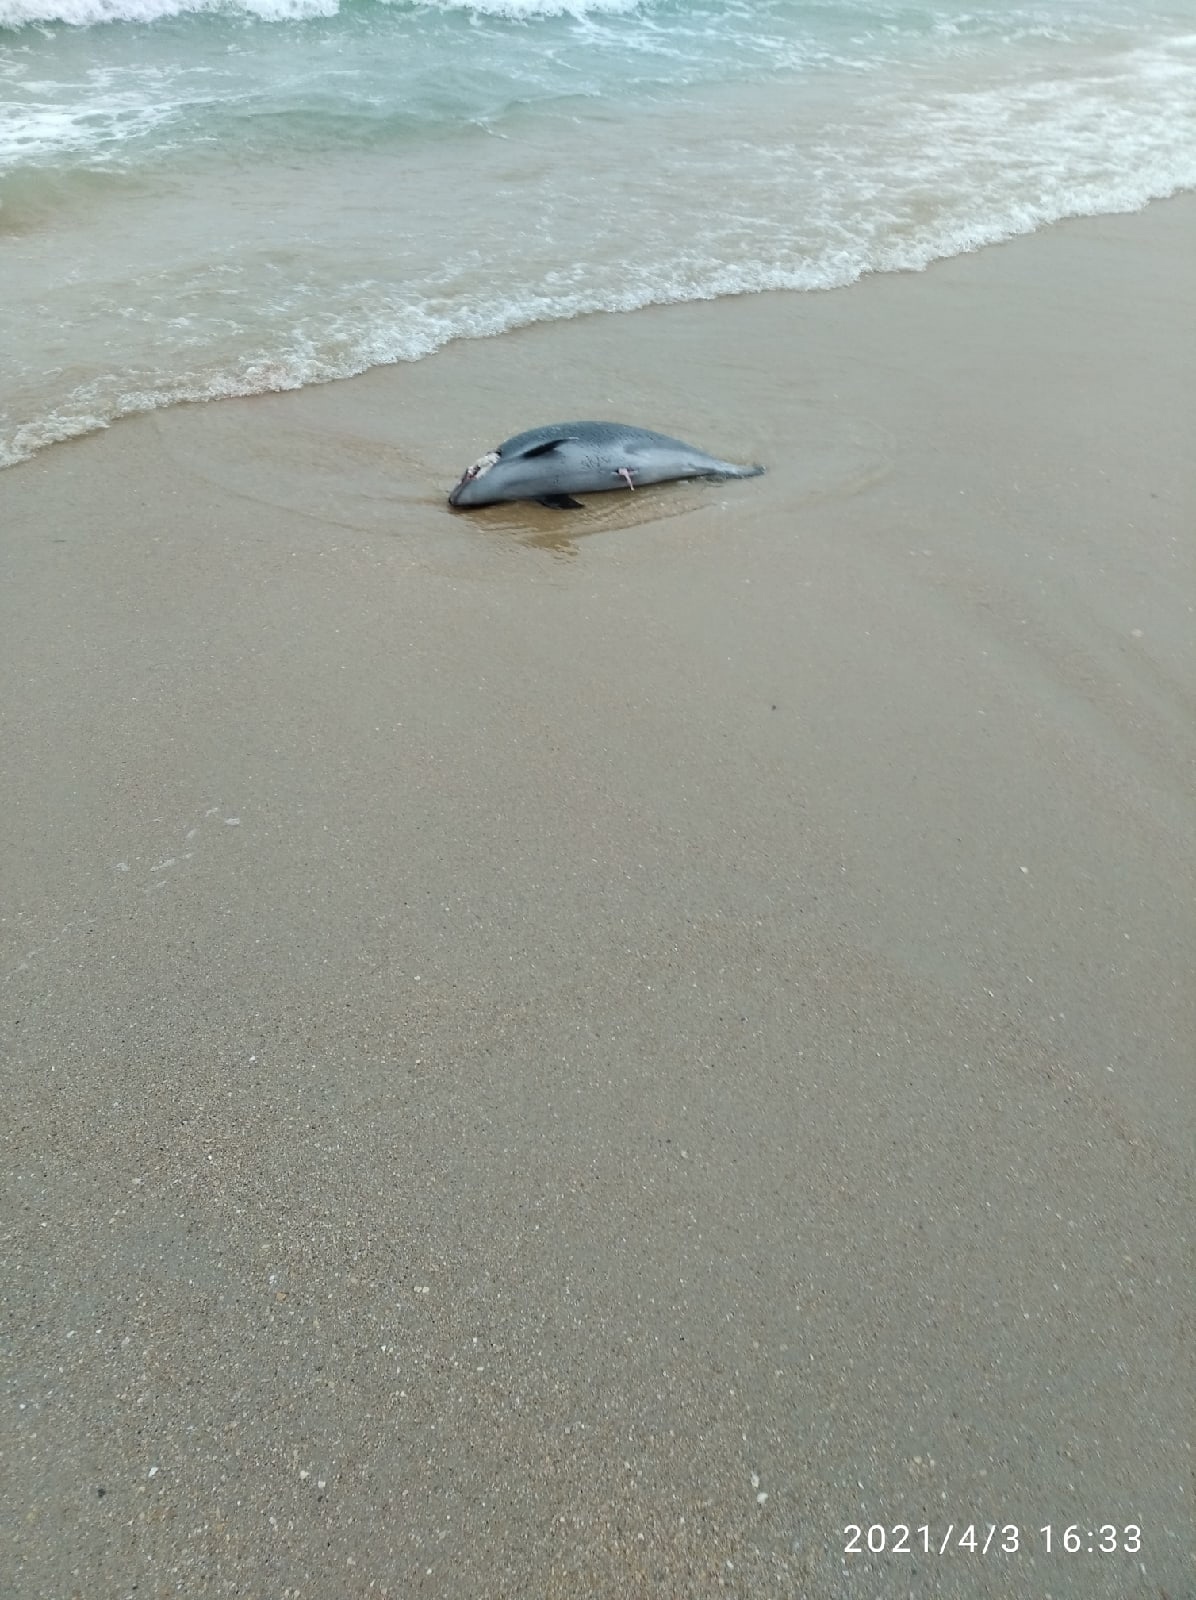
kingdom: Animalia
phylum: Chordata
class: Mammalia
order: Cetacea
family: Phocoenidae
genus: Phocoena
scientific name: Phocoena phocoena
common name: Harbor porpoise
